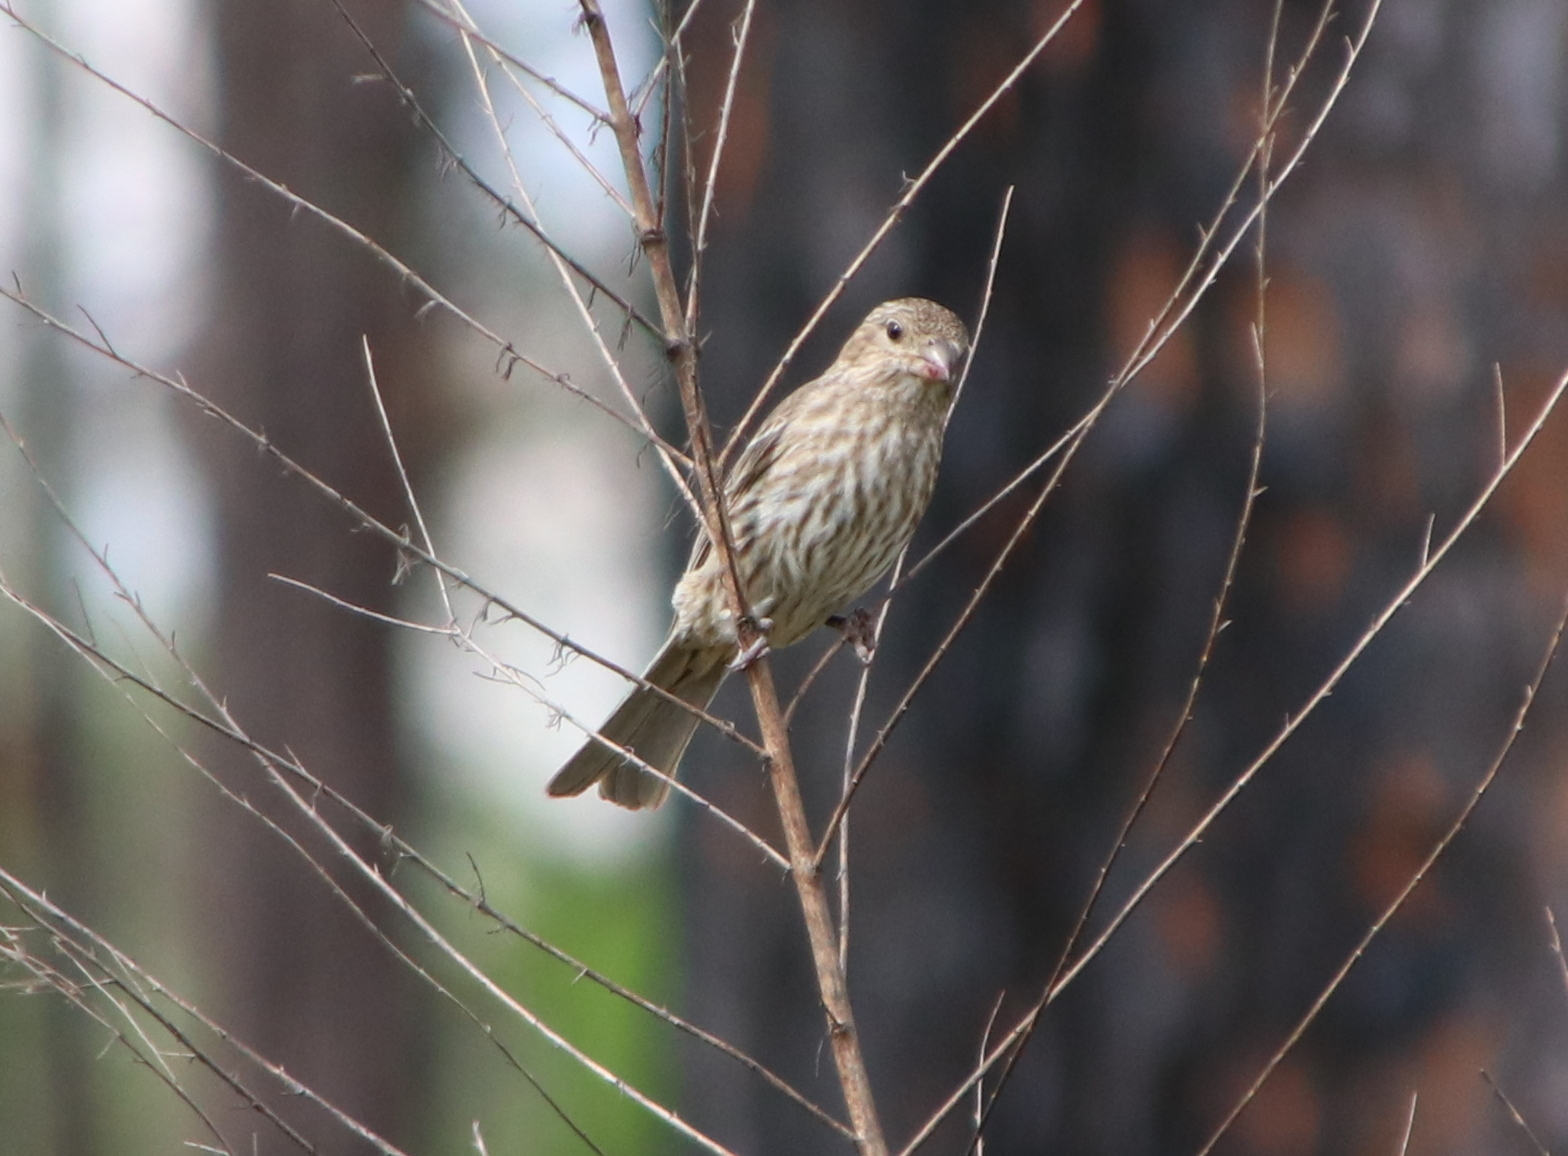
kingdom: Animalia
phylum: Chordata
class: Aves
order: Passeriformes
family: Fringillidae
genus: Haemorhous
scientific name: Haemorhous mexicanus
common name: House finch
